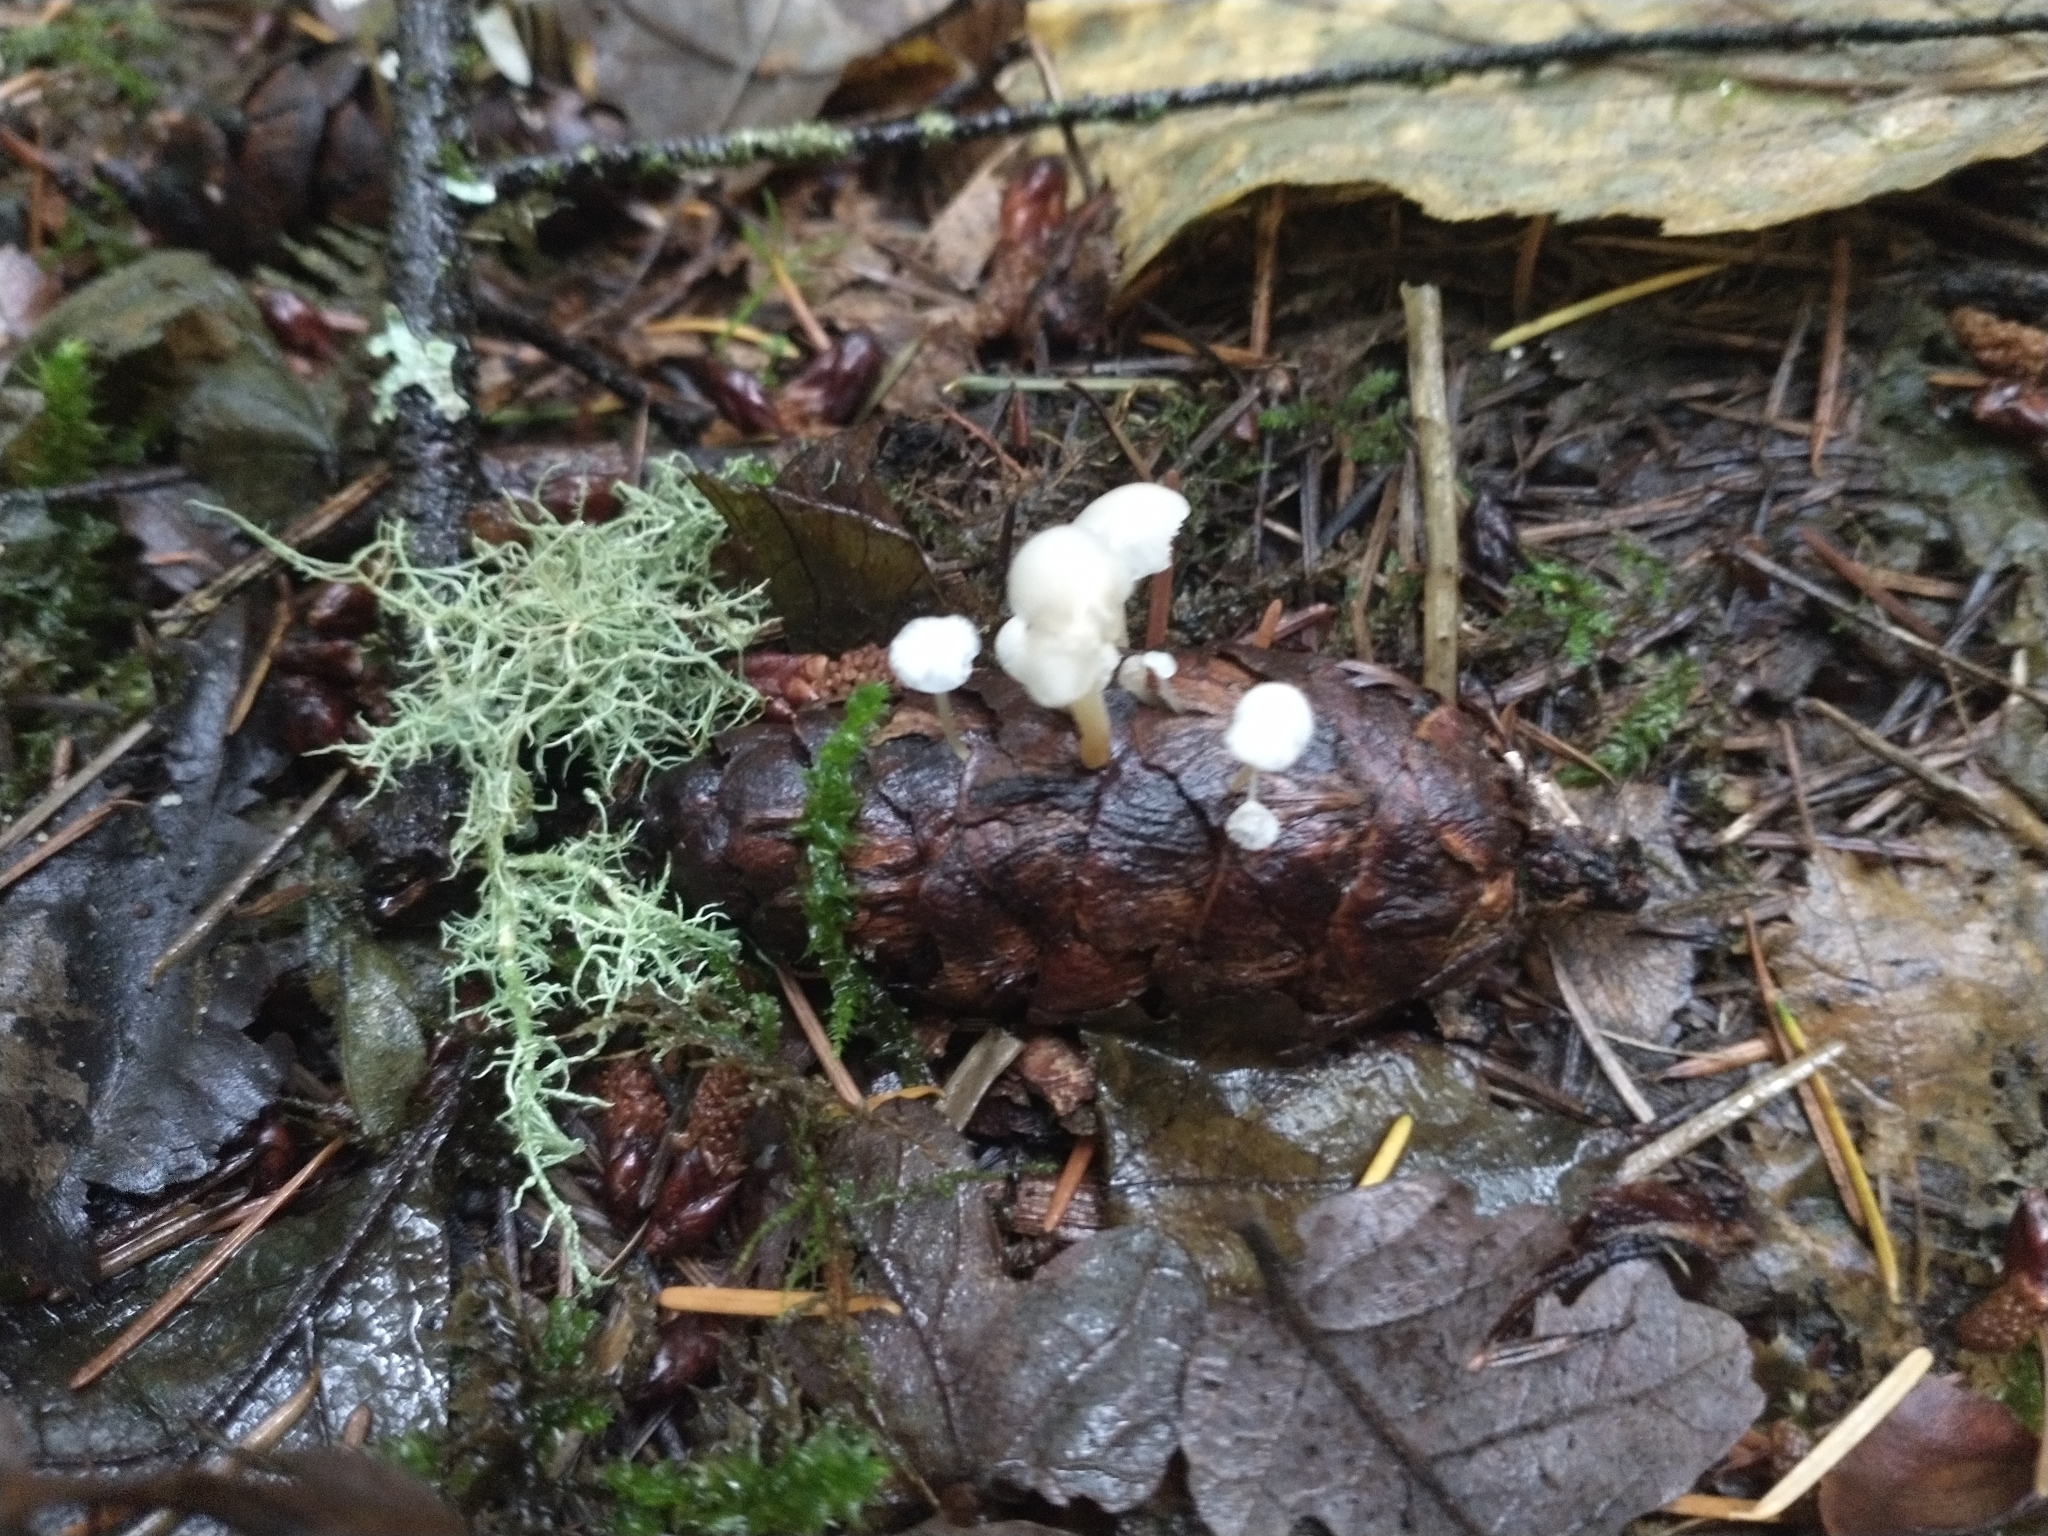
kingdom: Fungi
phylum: Basidiomycota
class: Agaricomycetes
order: Agaricales
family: Physalacriaceae
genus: Strobilurus
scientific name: Strobilurus trullisatus
